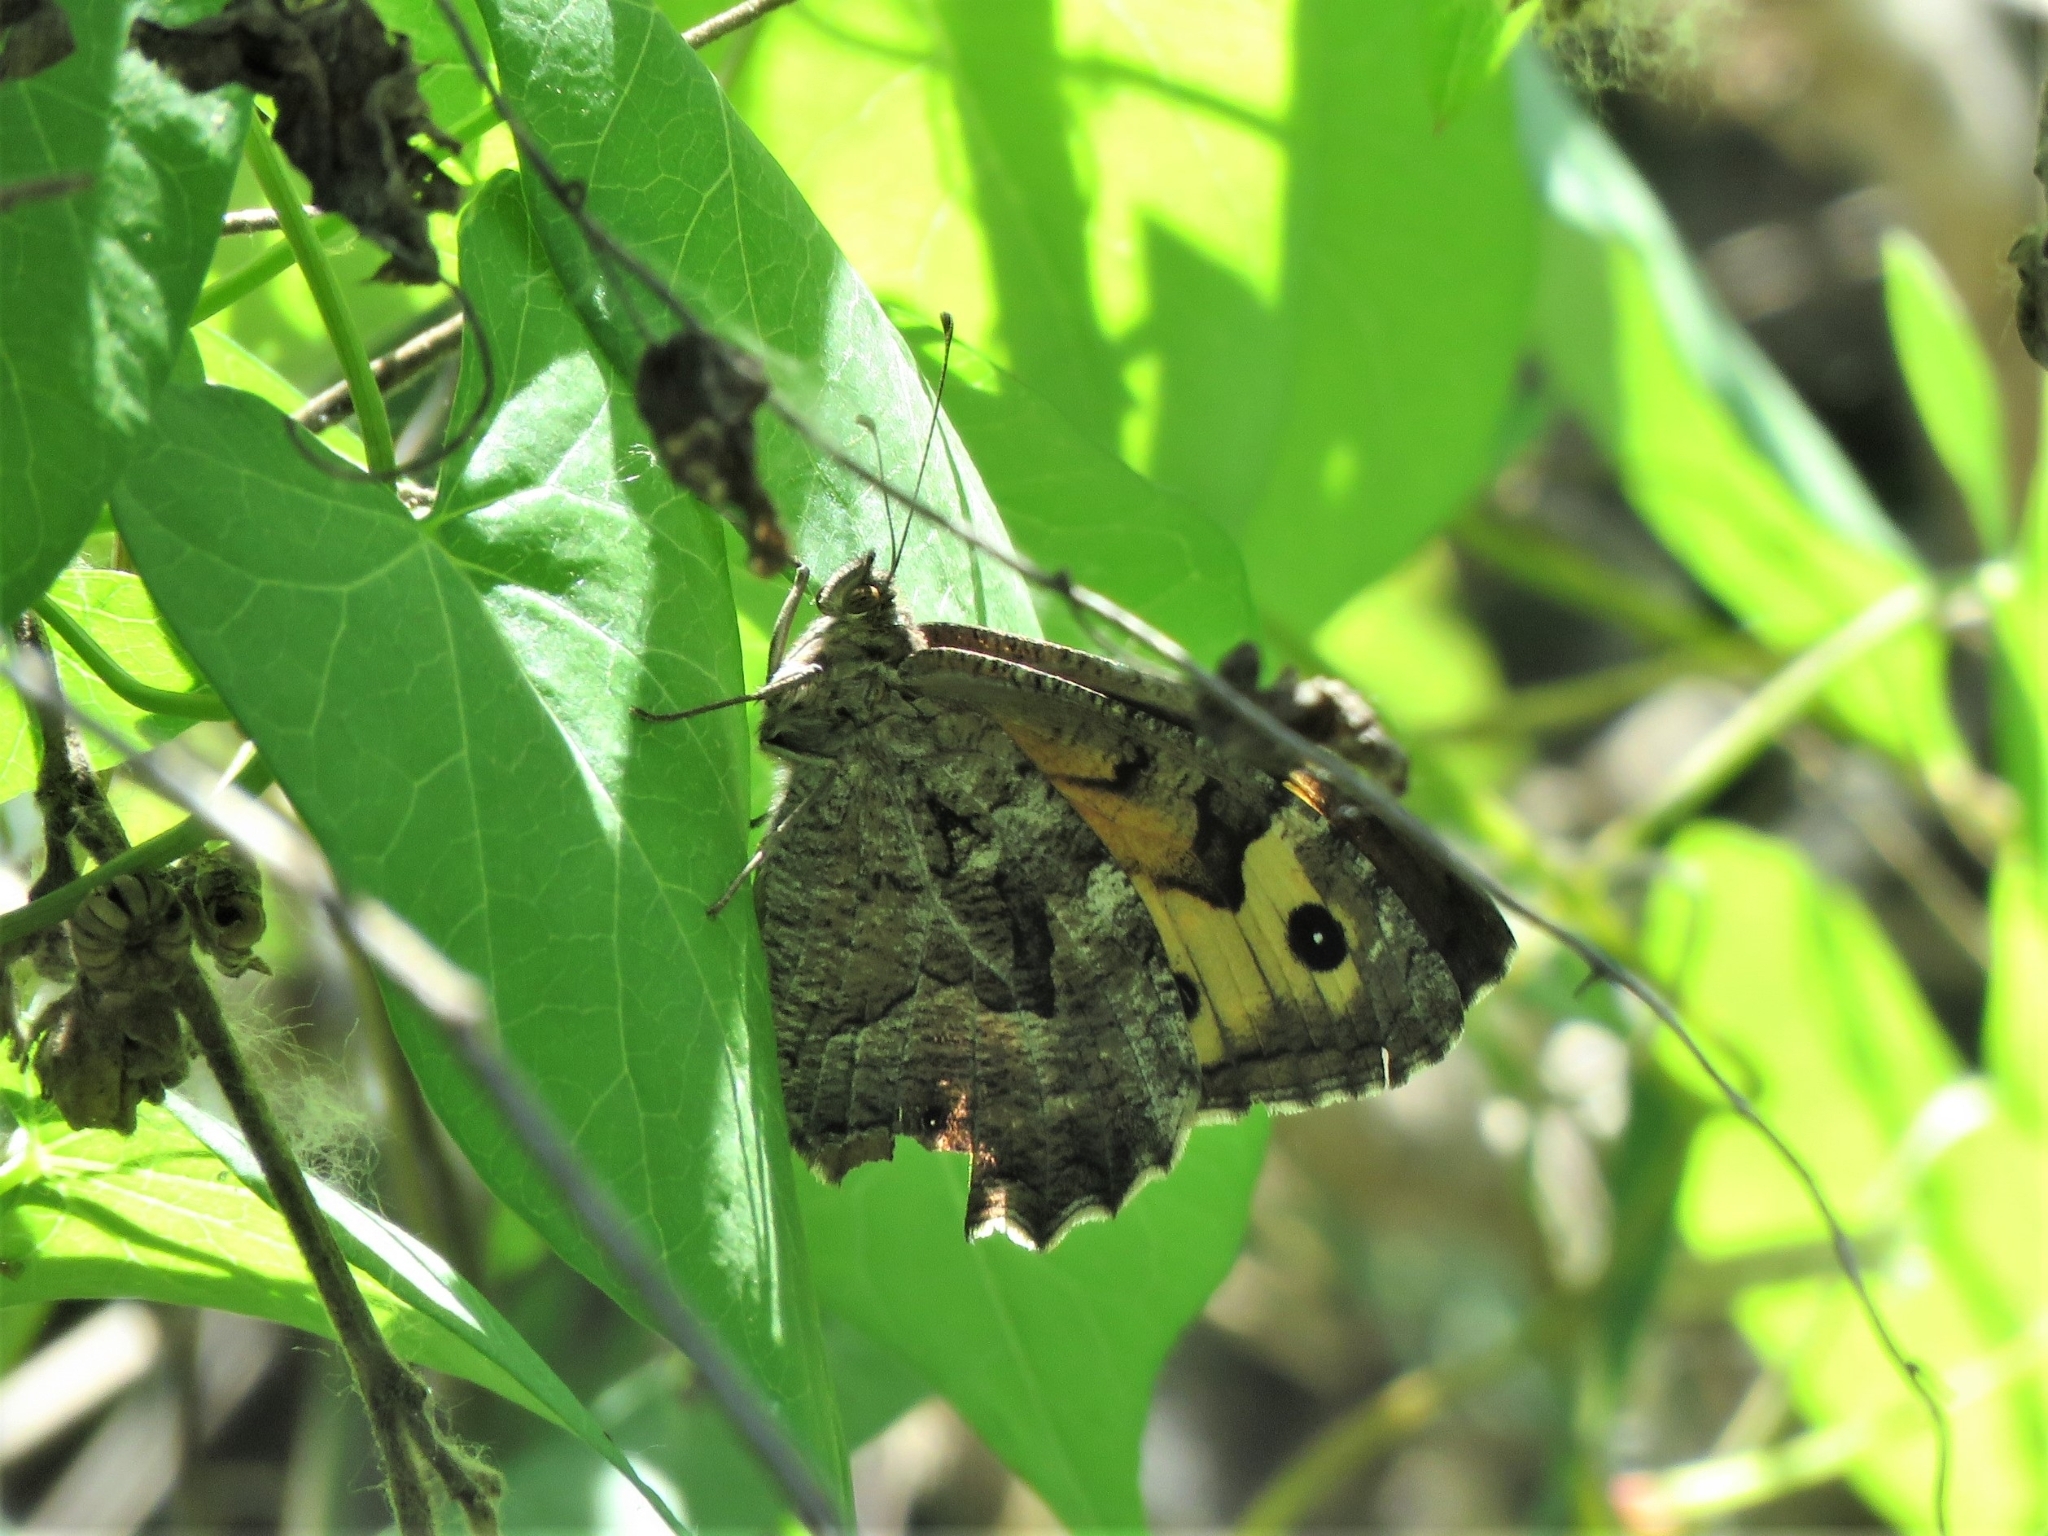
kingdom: Animalia
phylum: Arthropoda
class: Insecta
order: Lepidoptera
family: Nymphalidae
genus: Hipparchia
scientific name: Hipparchia semele
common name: Grayling
